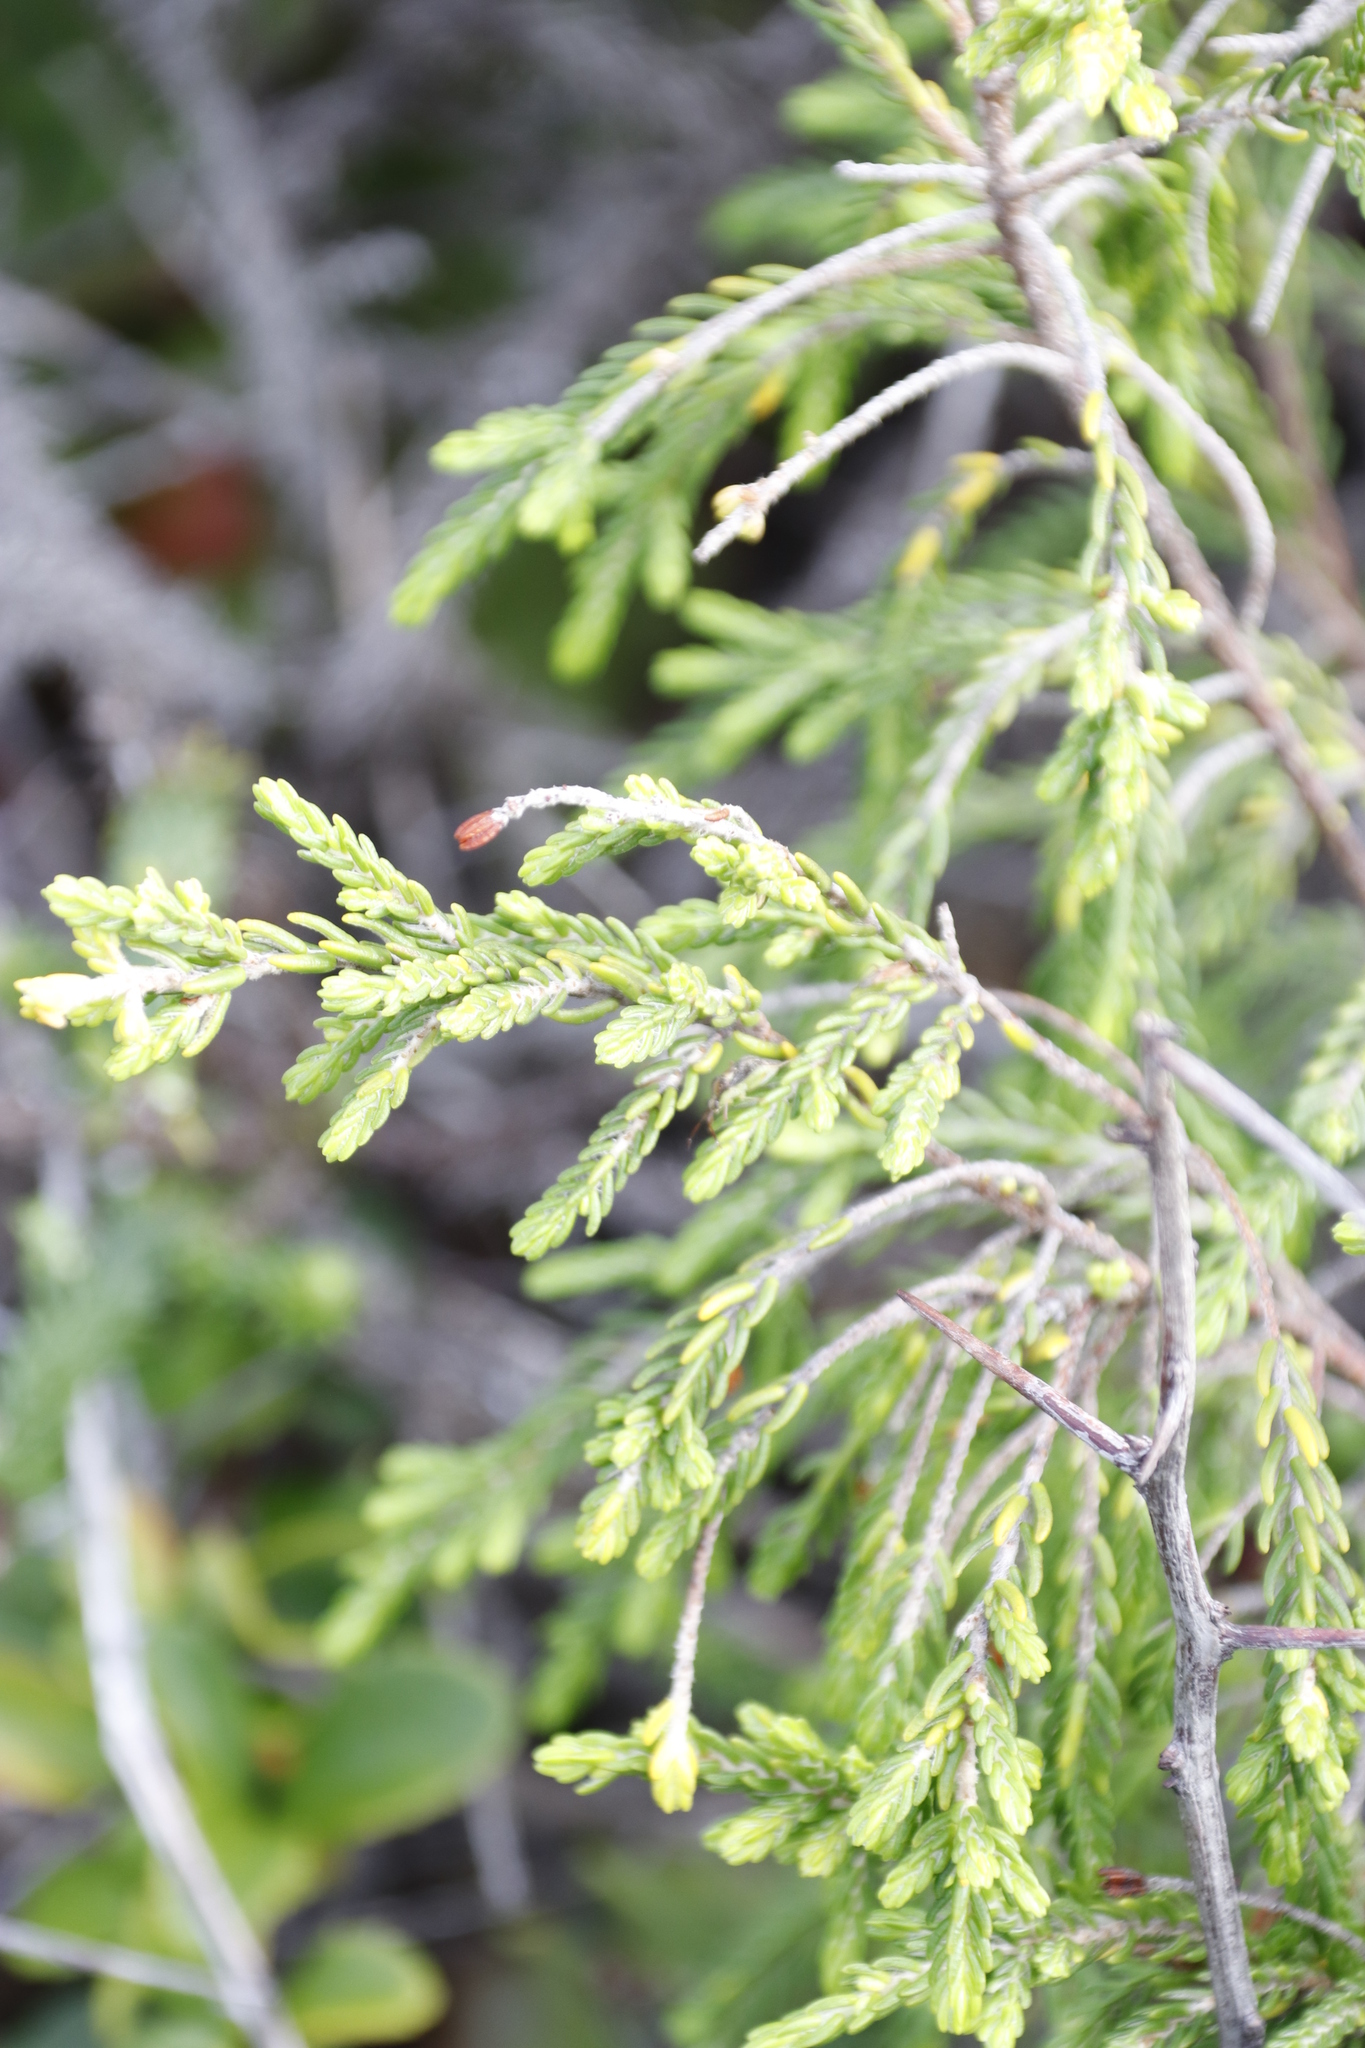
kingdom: Plantae
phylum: Tracheophyta
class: Magnoliopsida
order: Malvales
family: Thymelaeaceae
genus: Passerina
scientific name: Passerina rigida
